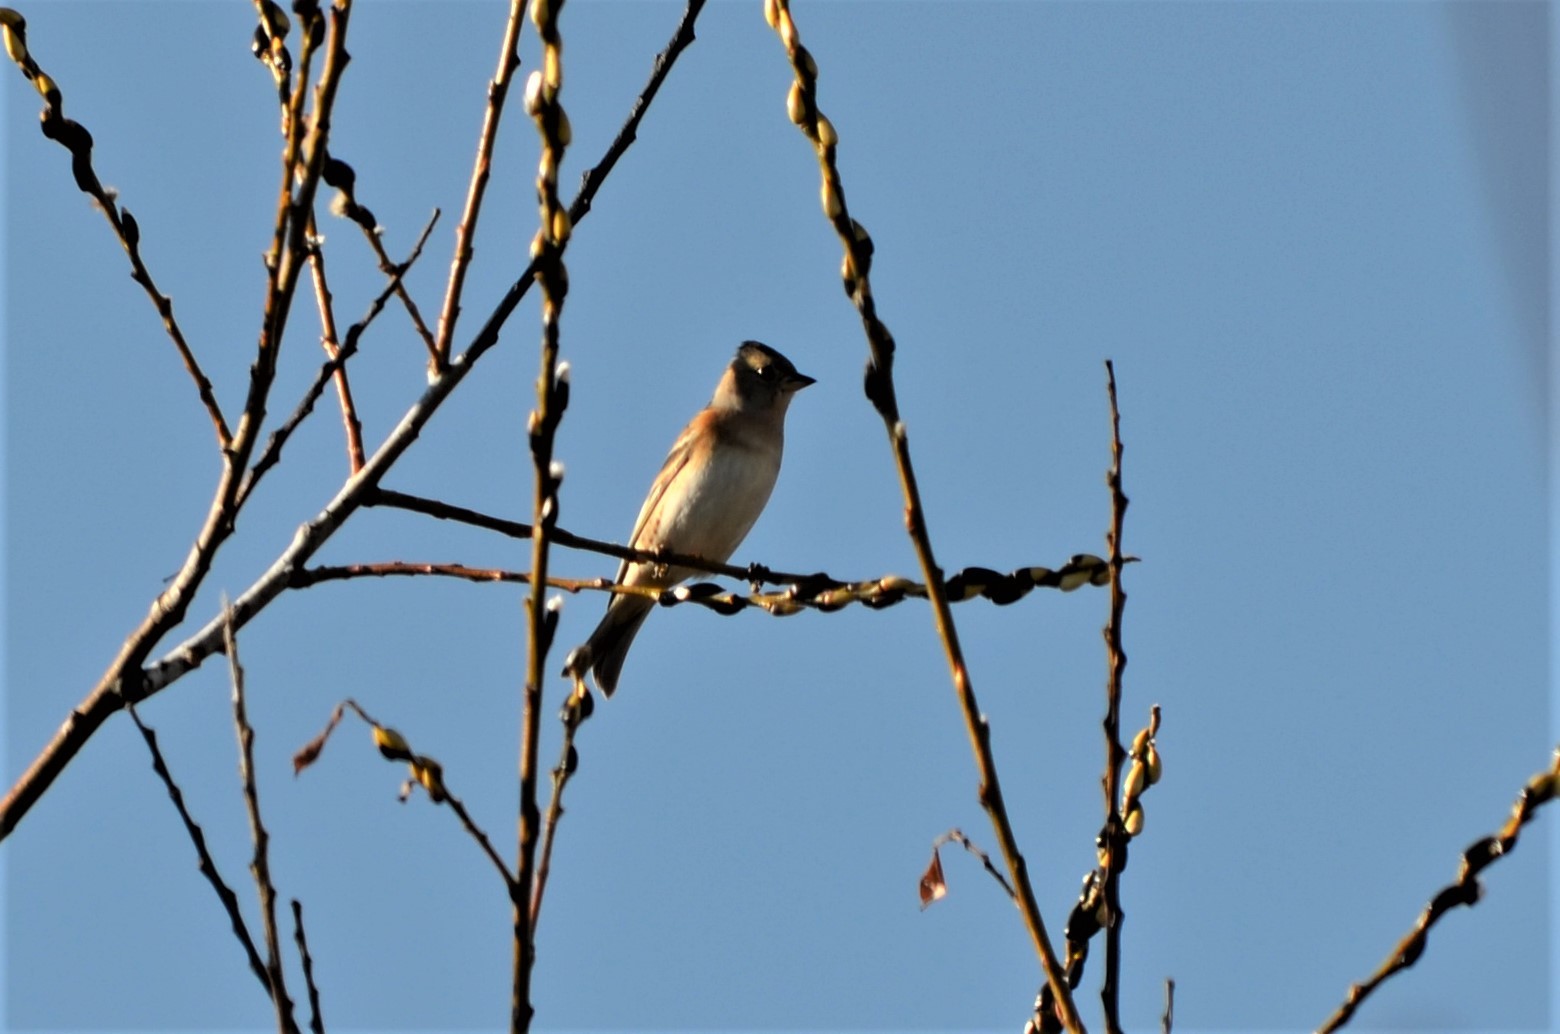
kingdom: Animalia
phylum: Chordata
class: Aves
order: Passeriformes
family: Fringillidae
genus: Fringilla
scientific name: Fringilla montifringilla
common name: Brambling
